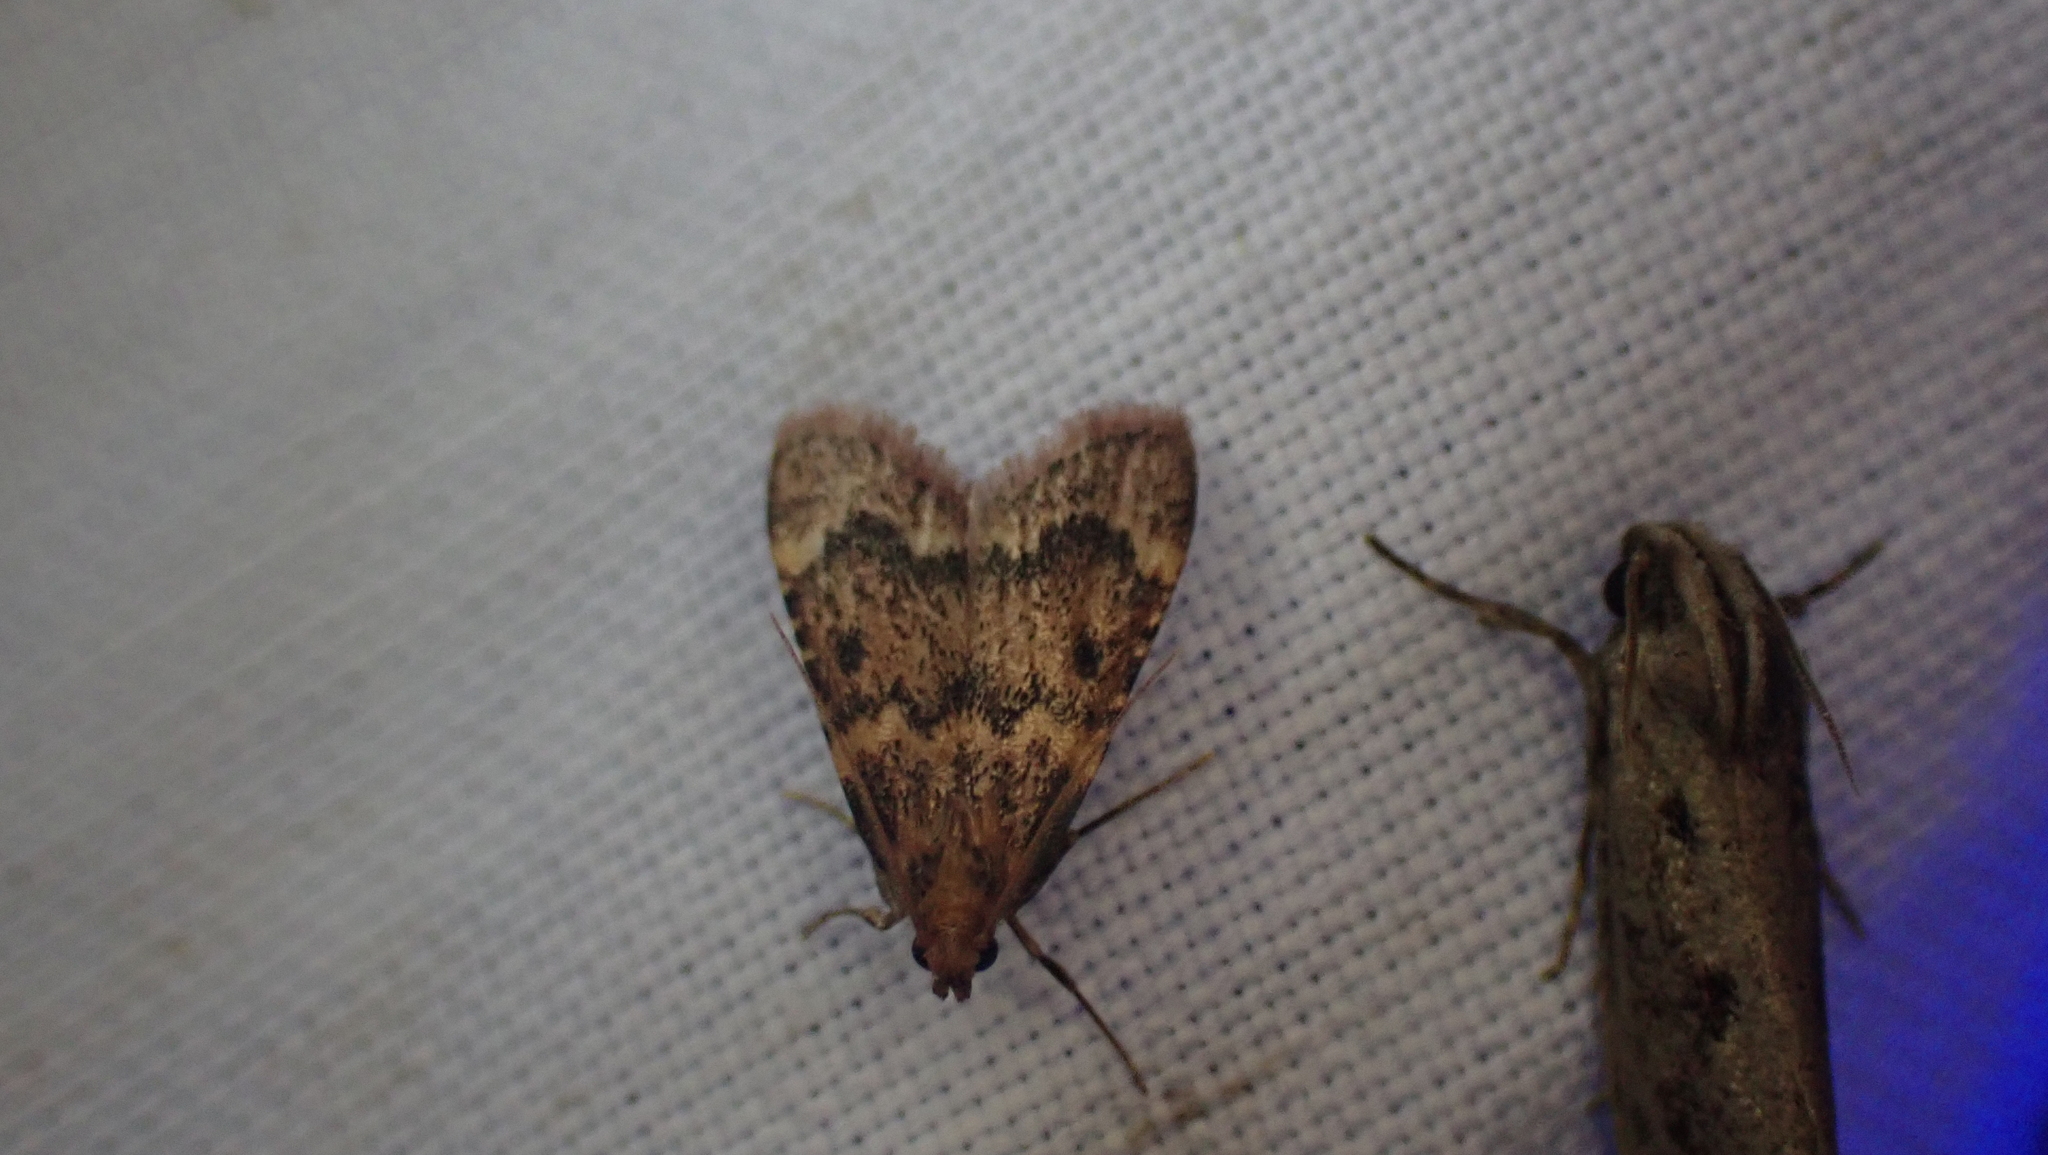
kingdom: Animalia
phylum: Arthropoda
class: Insecta
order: Lepidoptera
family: Pyralidae
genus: Aglossa
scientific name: Aglossa disciferalis
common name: Pink-masked pyralid moth
